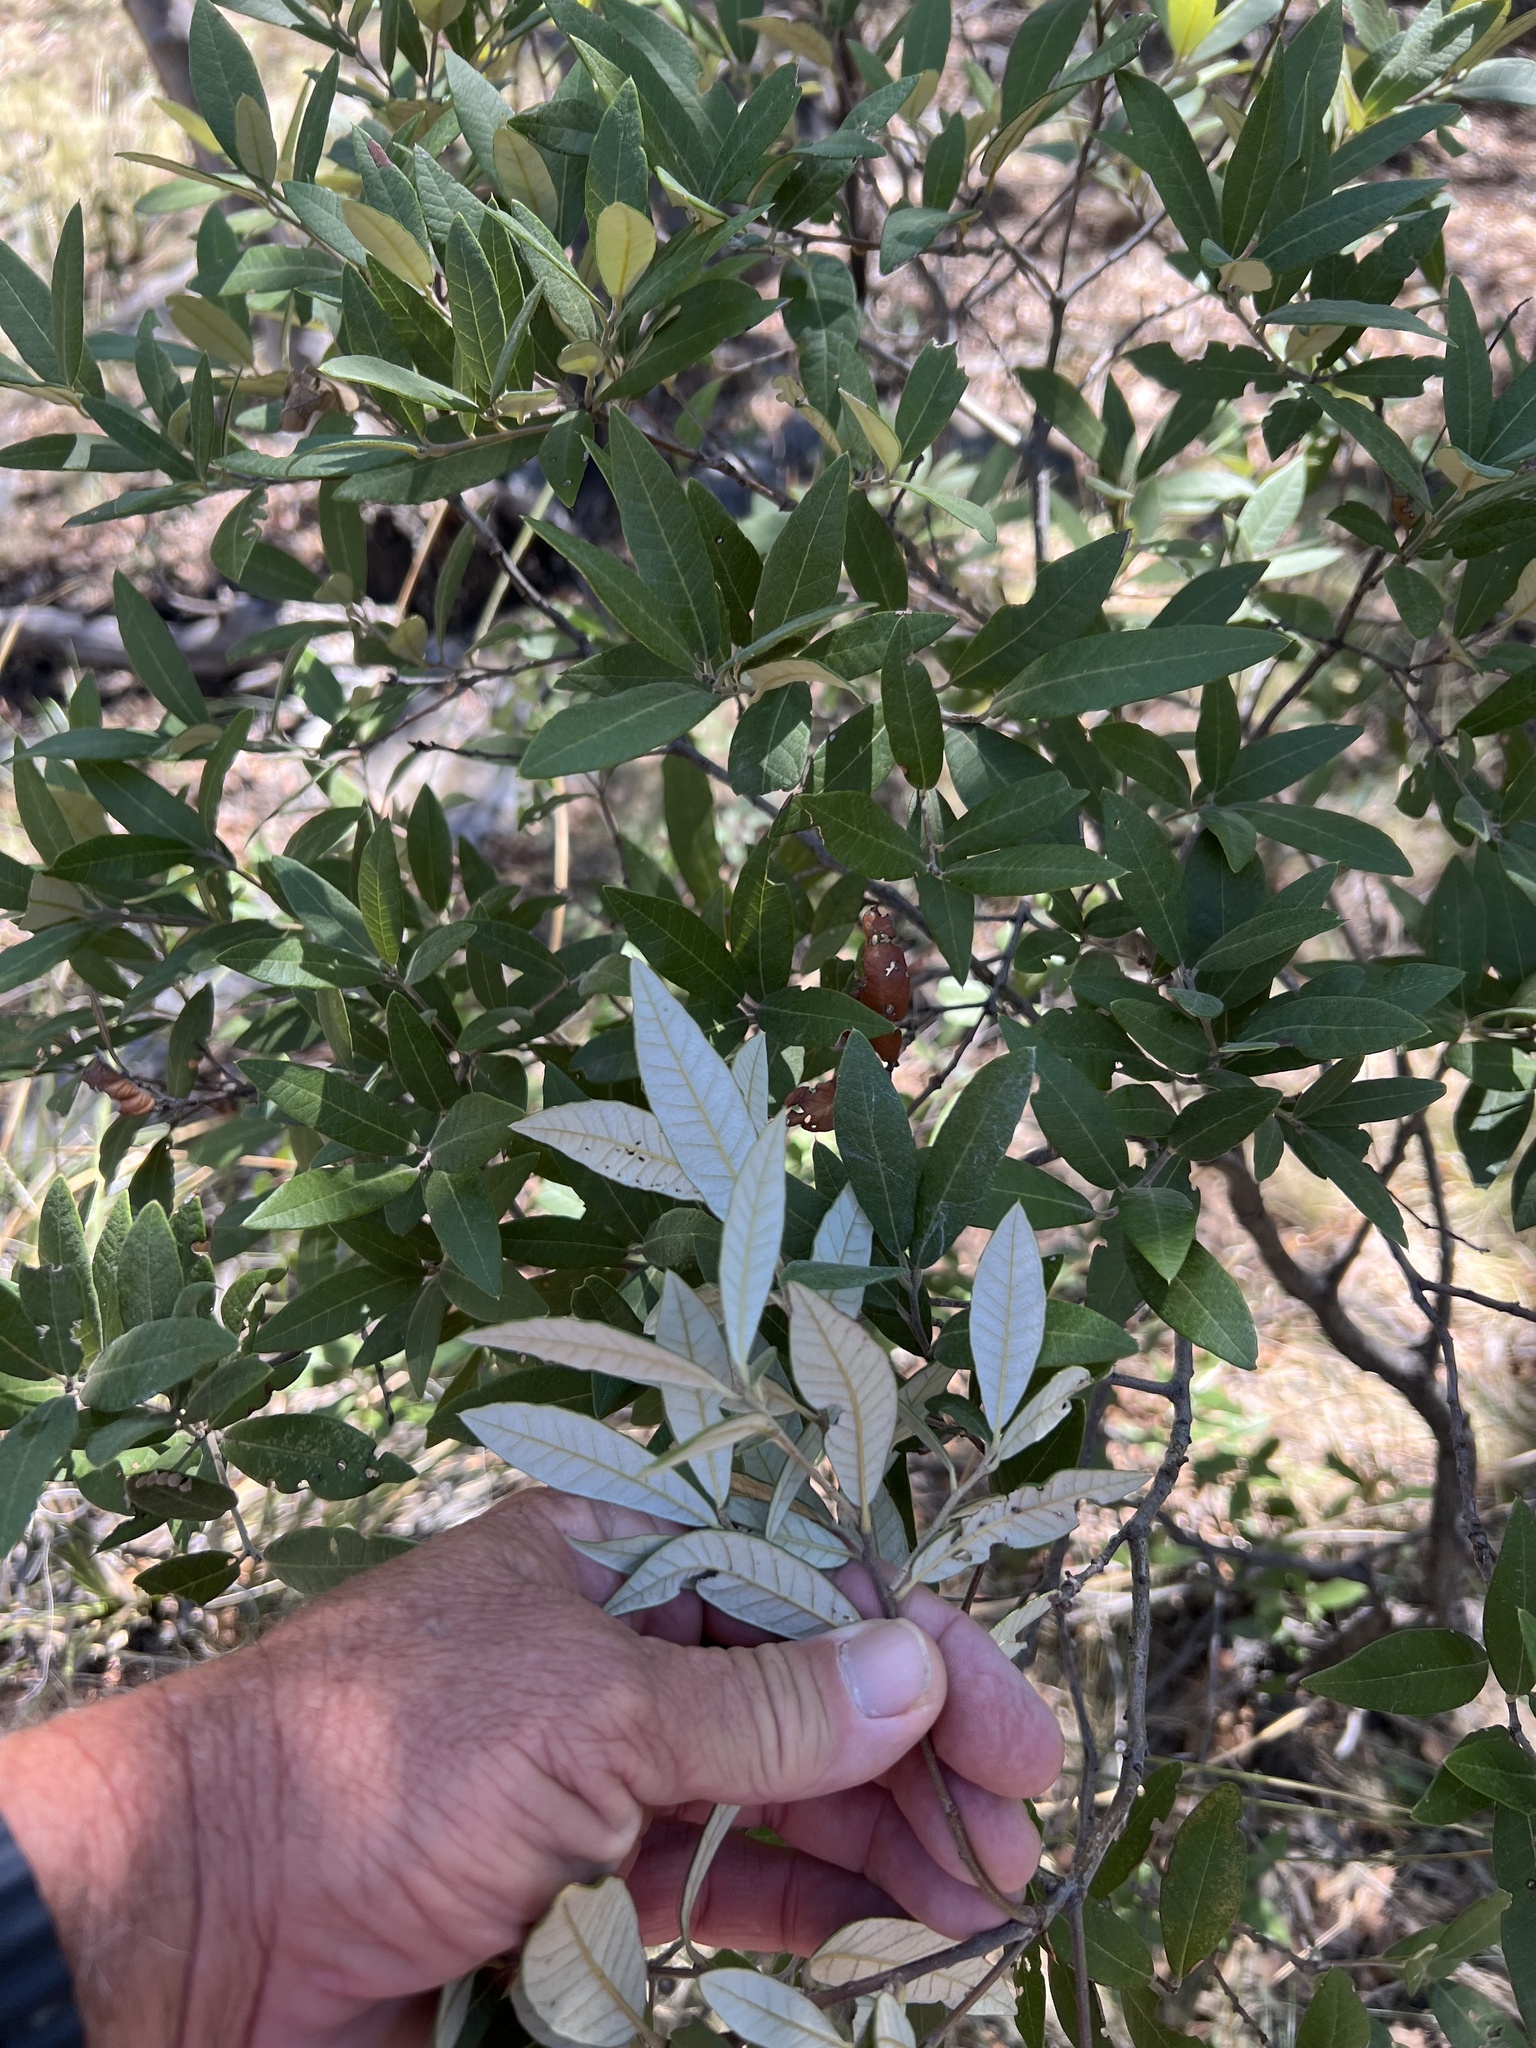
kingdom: Plantae
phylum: Tracheophyta
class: Magnoliopsida
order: Fagales
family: Fagaceae
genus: Quercus
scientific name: Quercus hypoleucoides
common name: Silverleaf oak
